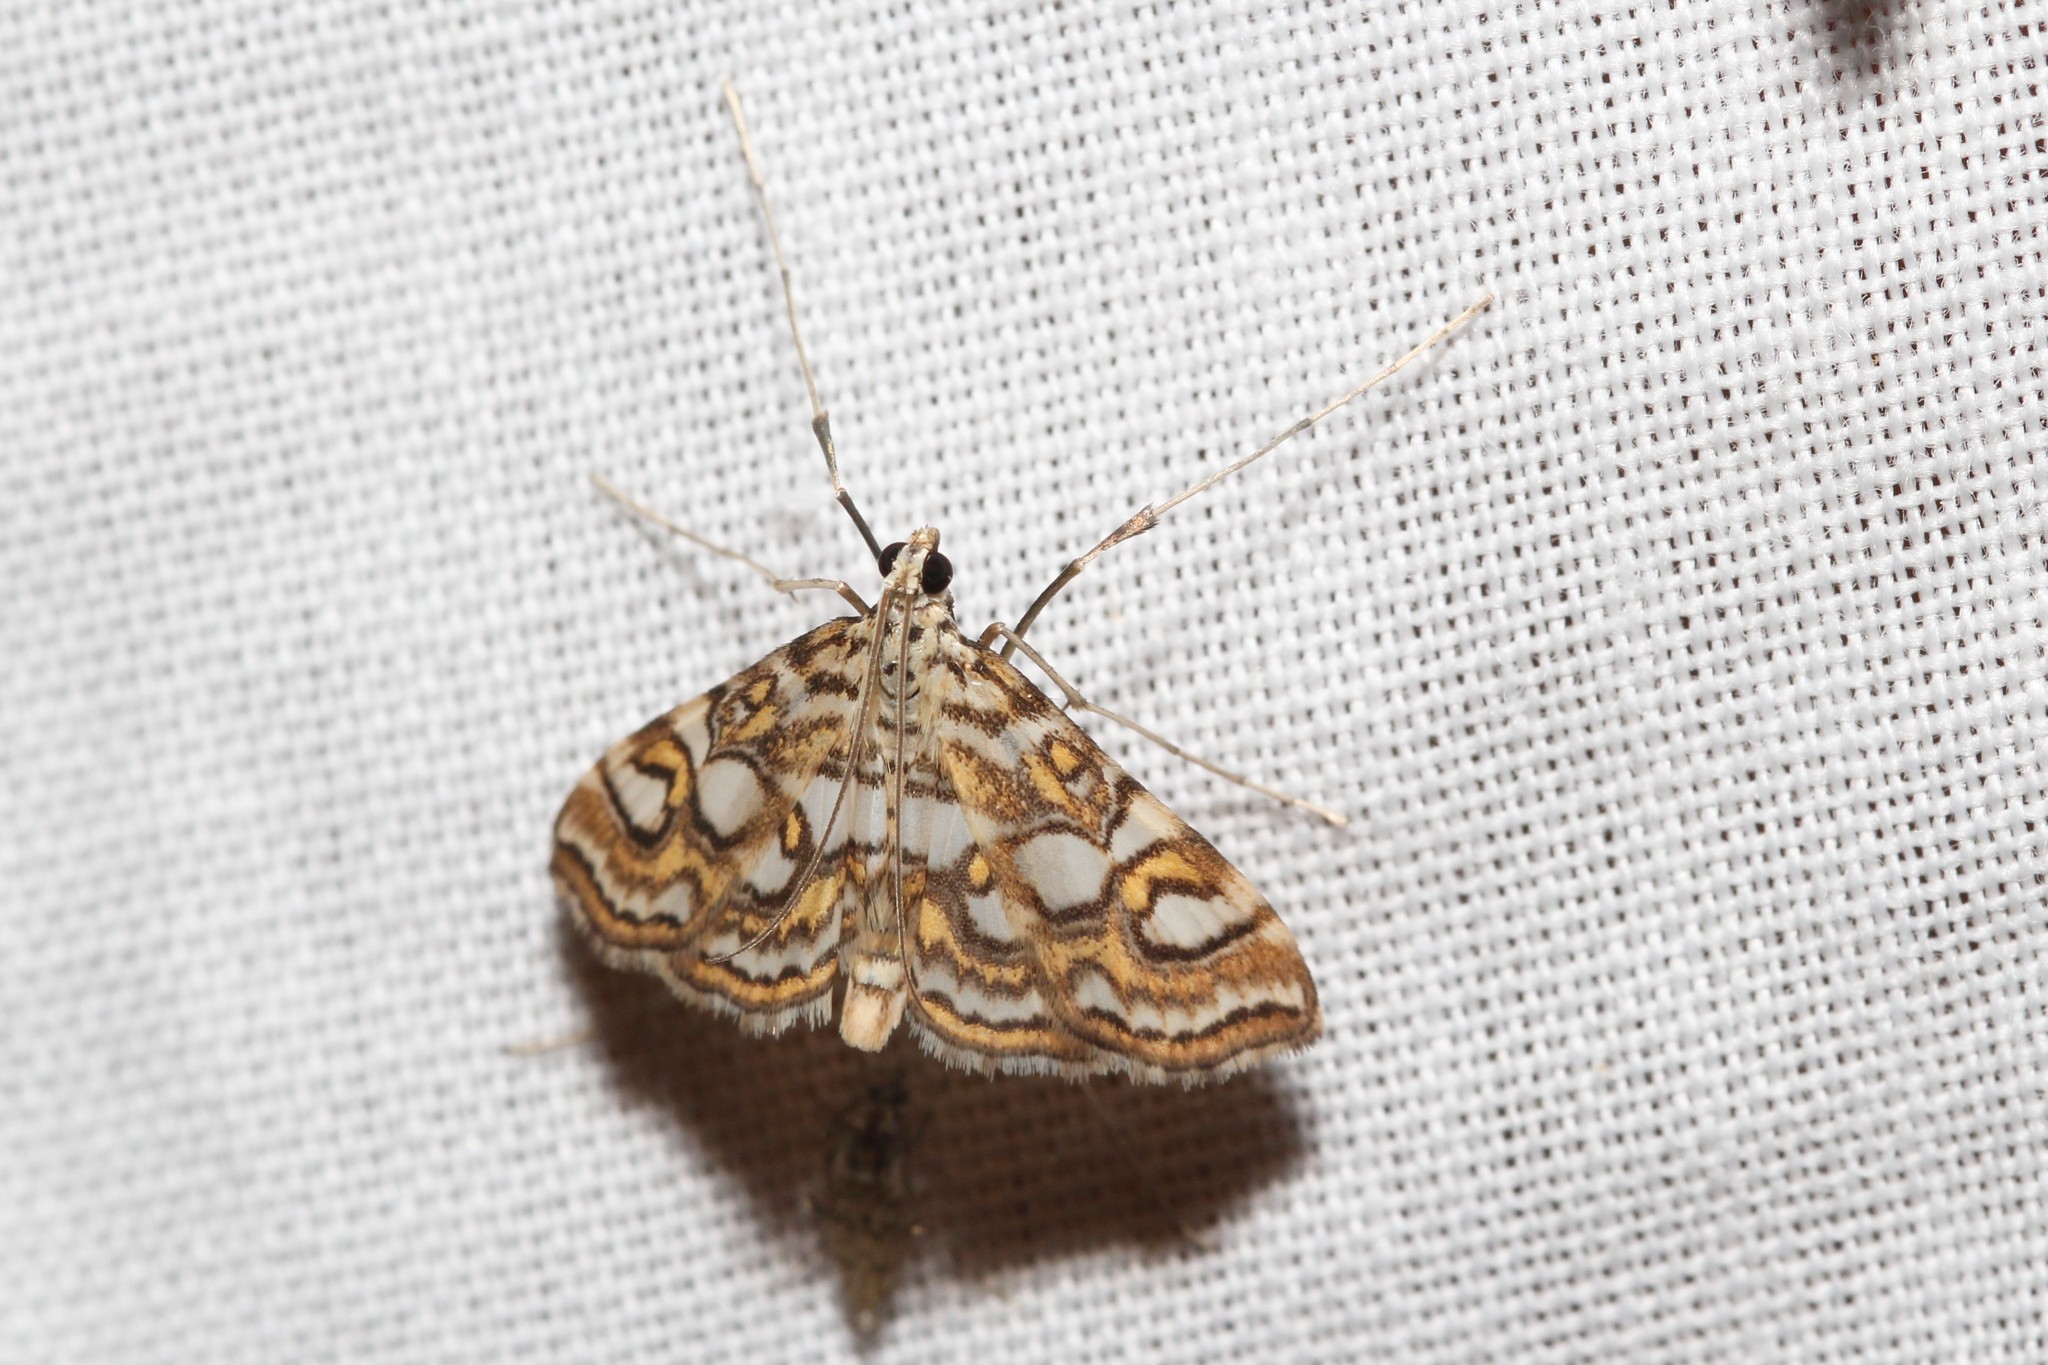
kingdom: Animalia
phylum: Arthropoda
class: Insecta
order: Lepidoptera
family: Crambidae
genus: Elophila
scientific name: Elophila ekthlipsis
